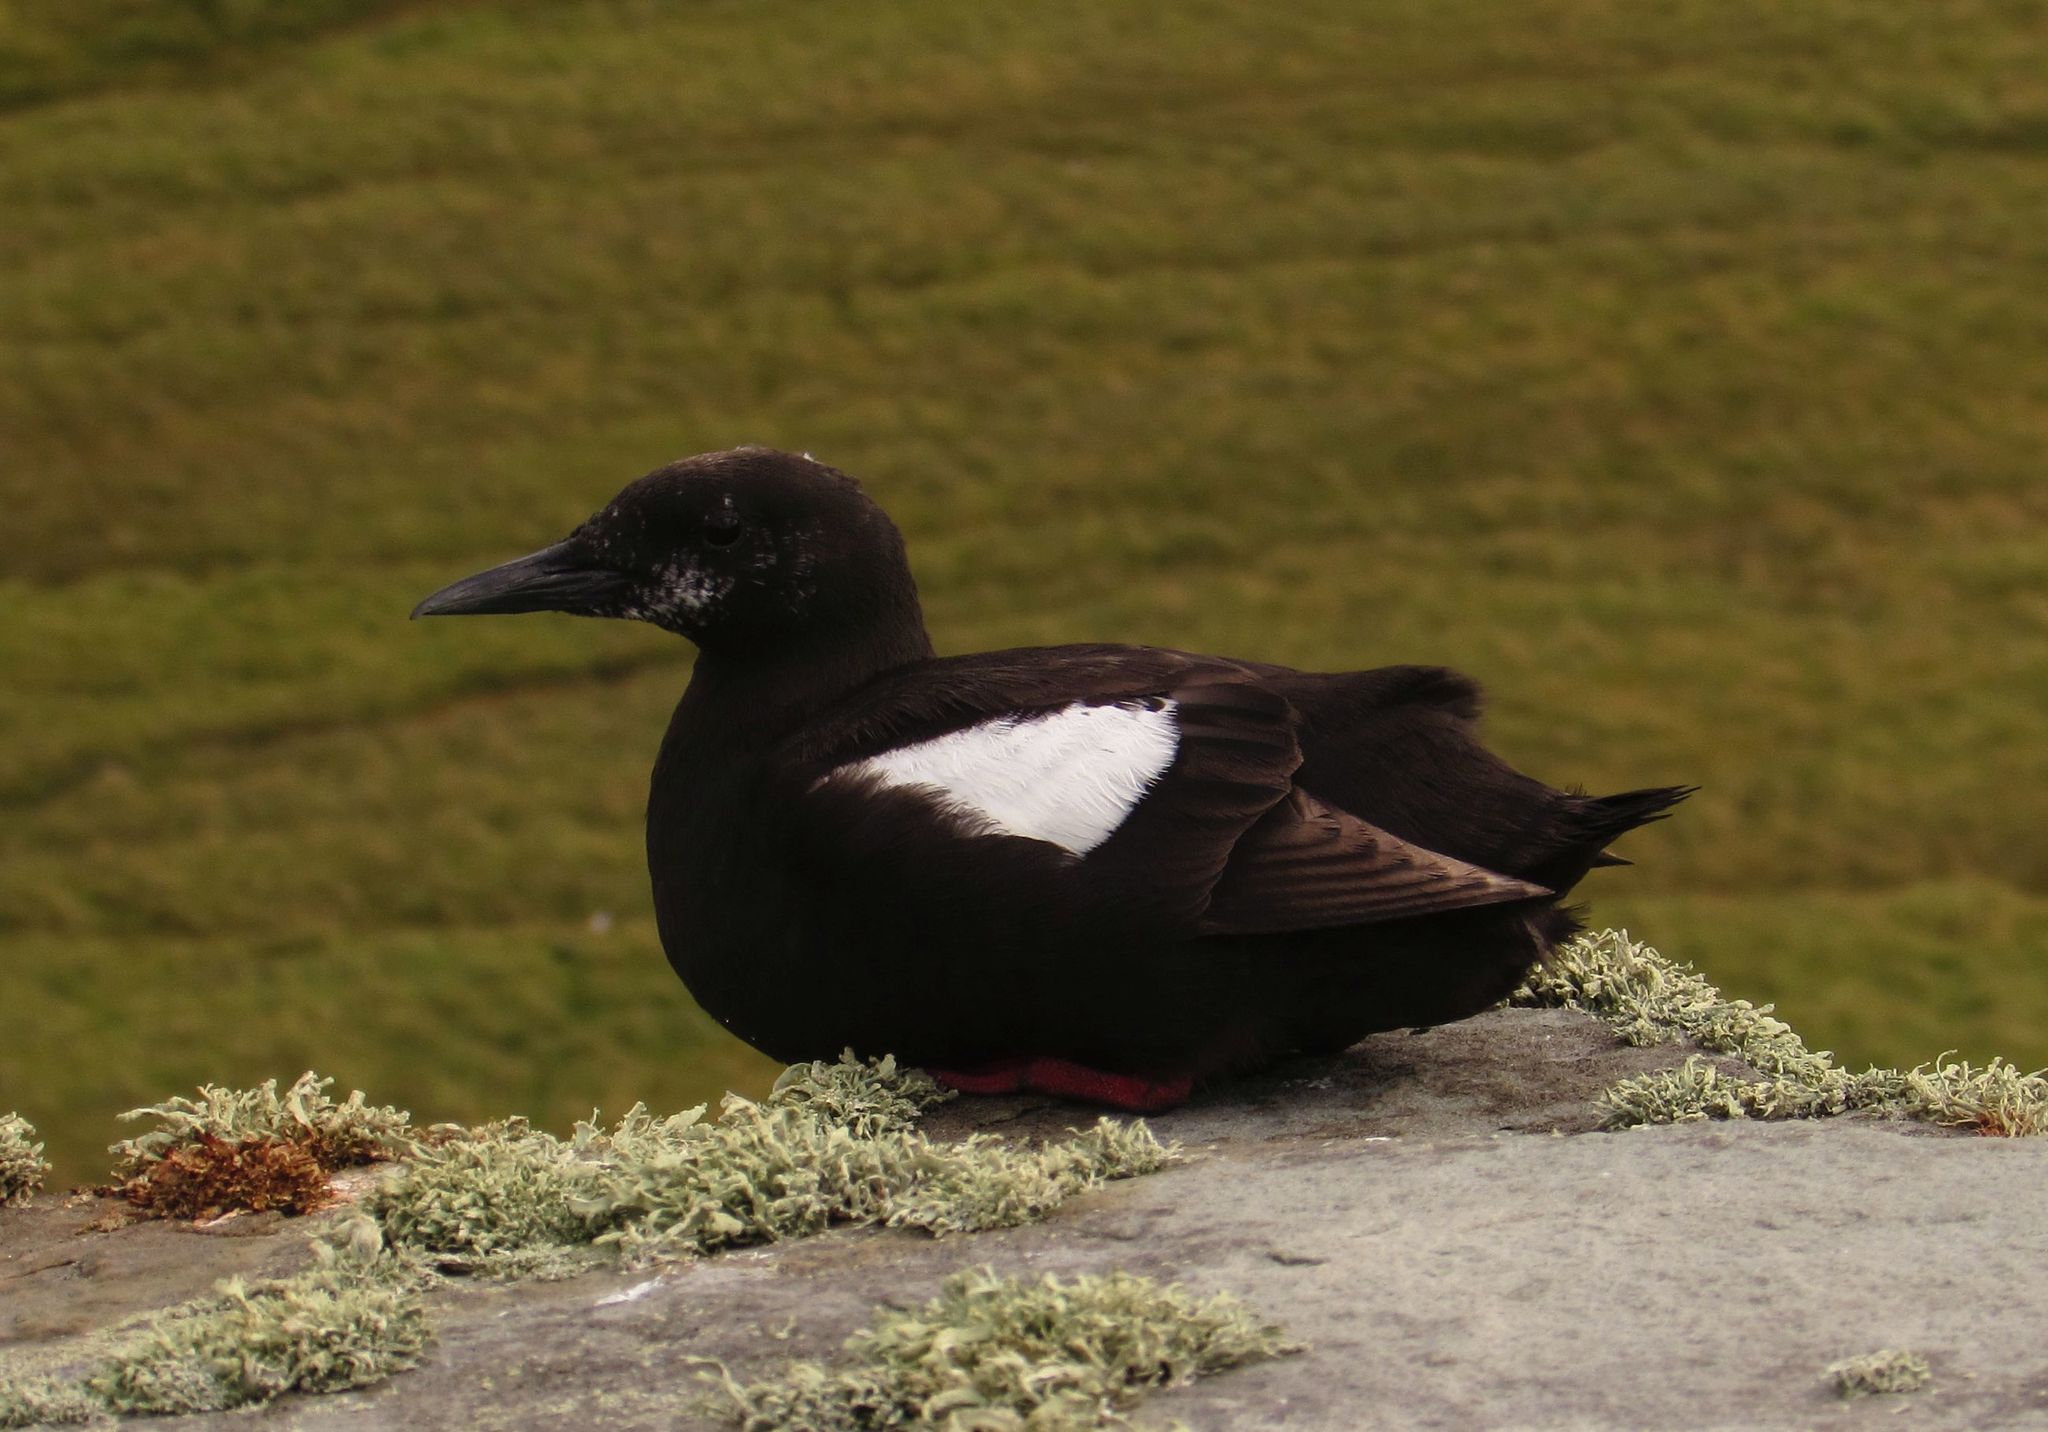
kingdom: Animalia
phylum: Chordata
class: Aves
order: Charadriiformes
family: Alcidae
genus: Cepphus
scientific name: Cepphus grylle
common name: Black guillemot
